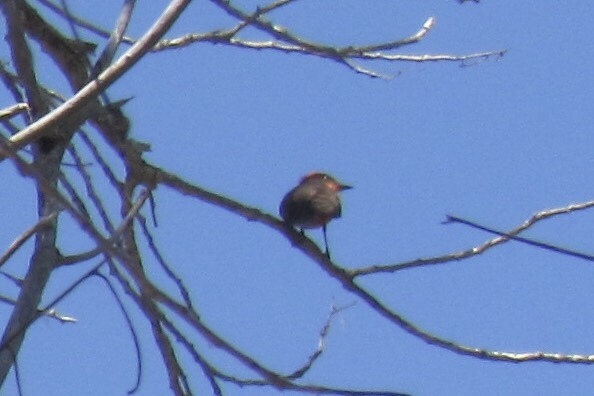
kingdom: Animalia
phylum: Chordata
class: Aves
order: Passeriformes
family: Tyrannidae
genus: Pyrocephalus
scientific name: Pyrocephalus rubinus
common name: Vermilion flycatcher
